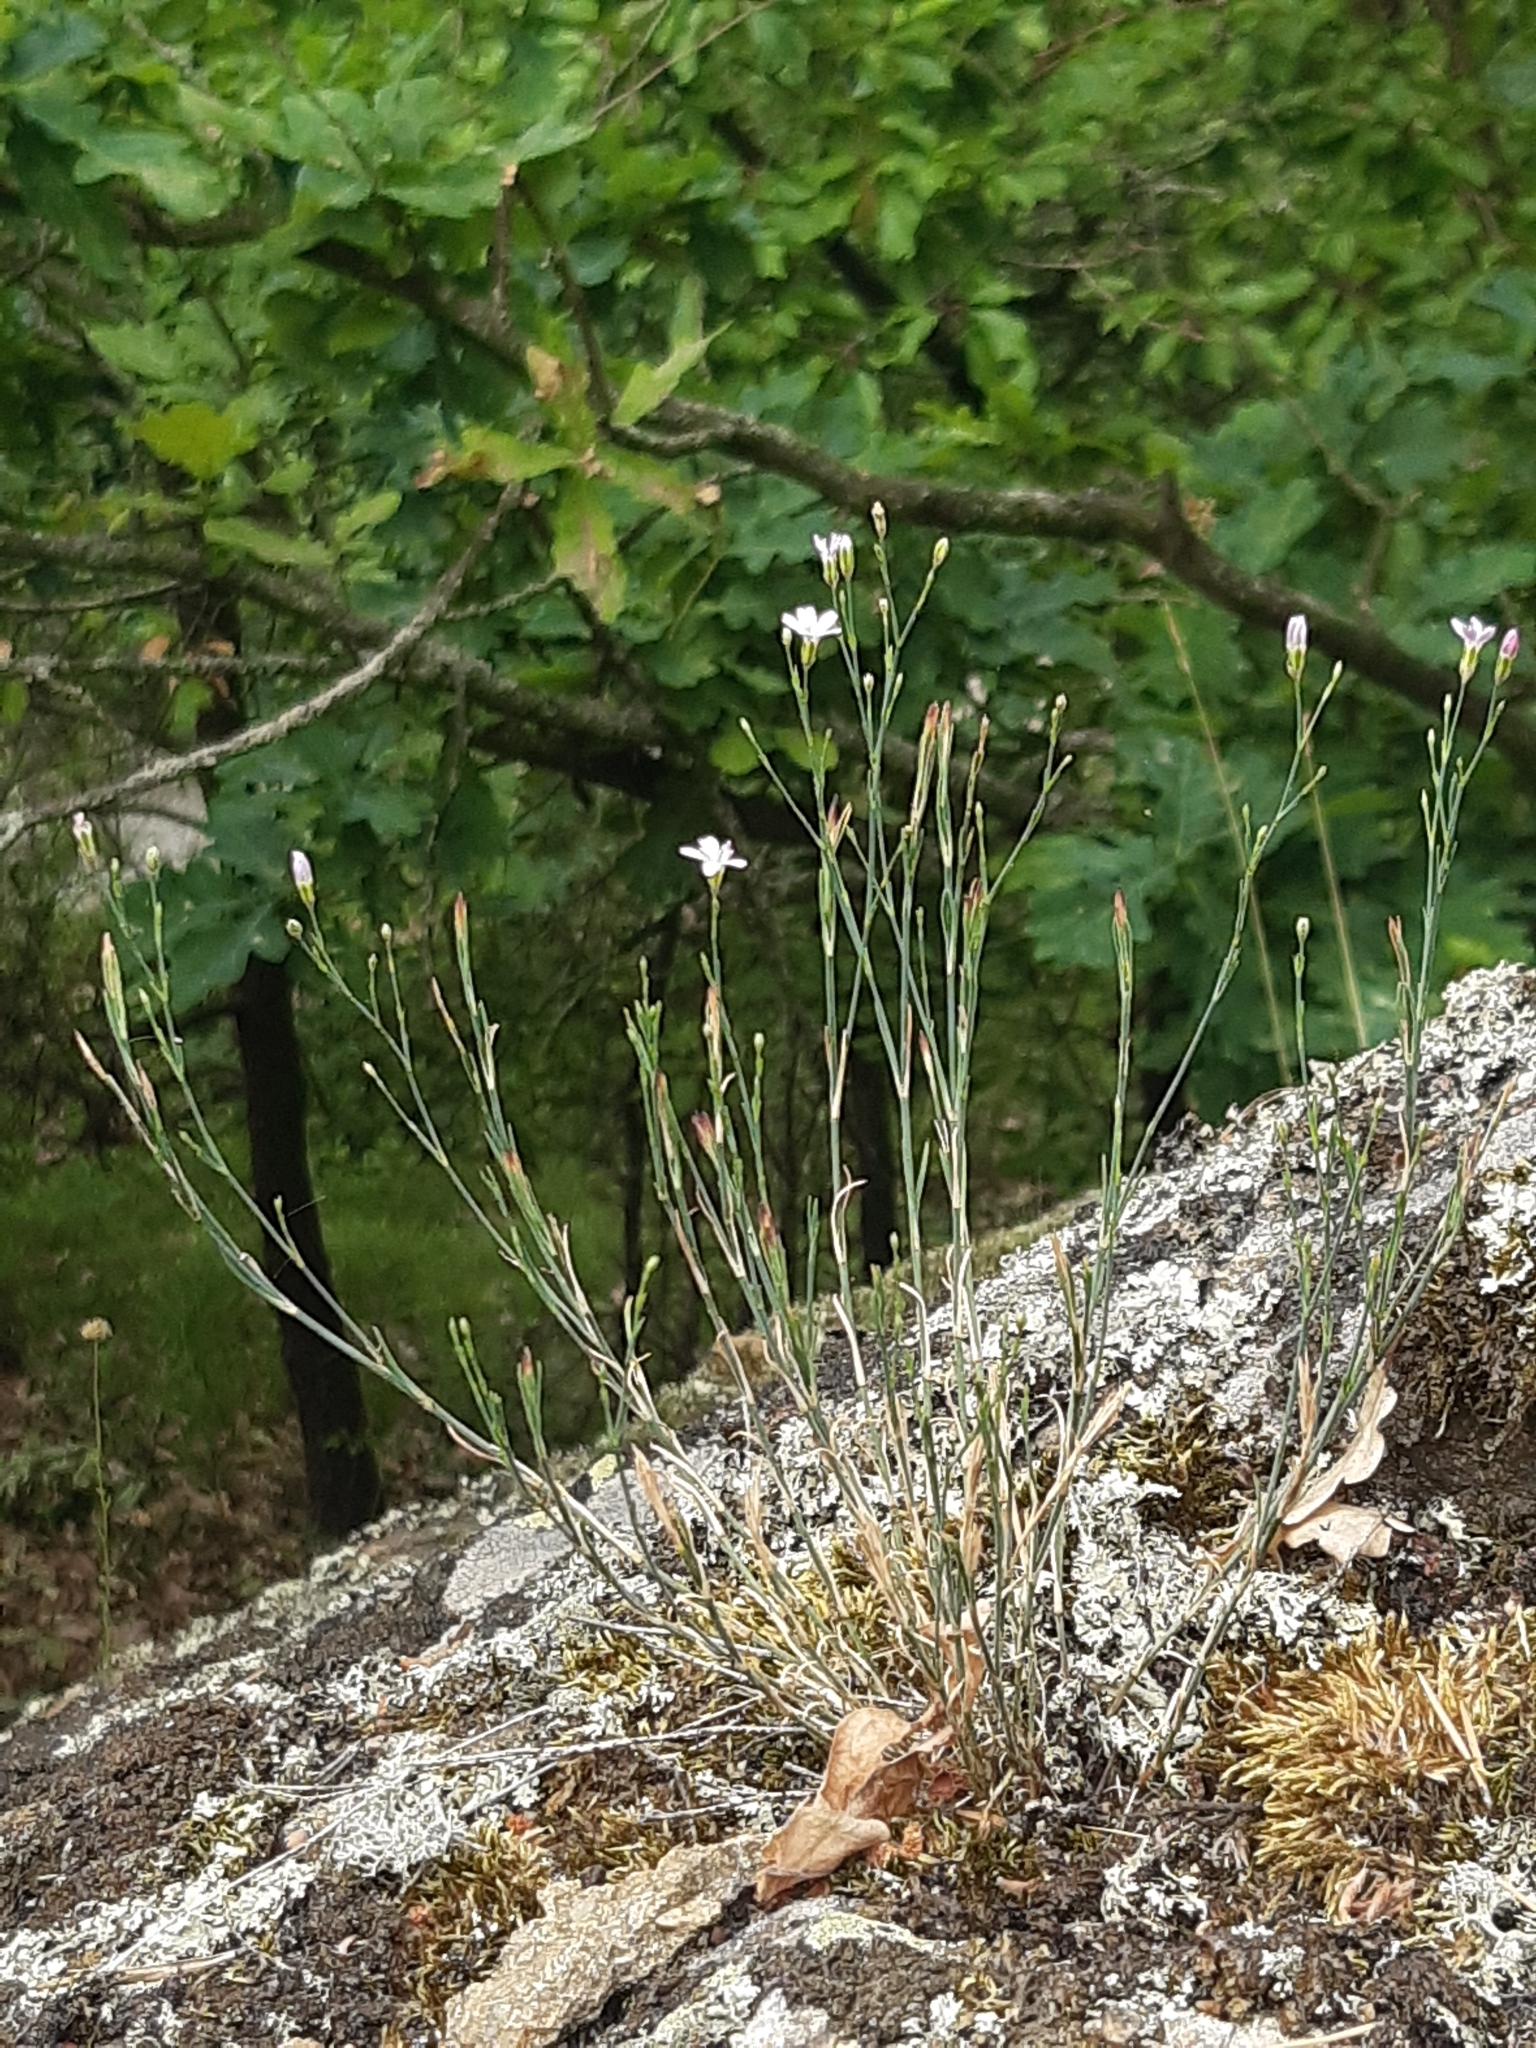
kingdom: Plantae
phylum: Tracheophyta
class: Magnoliopsida
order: Caryophyllales
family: Caryophyllaceae
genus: Petrorhagia
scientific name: Petrorhagia saxifraga
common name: Tunicflower
